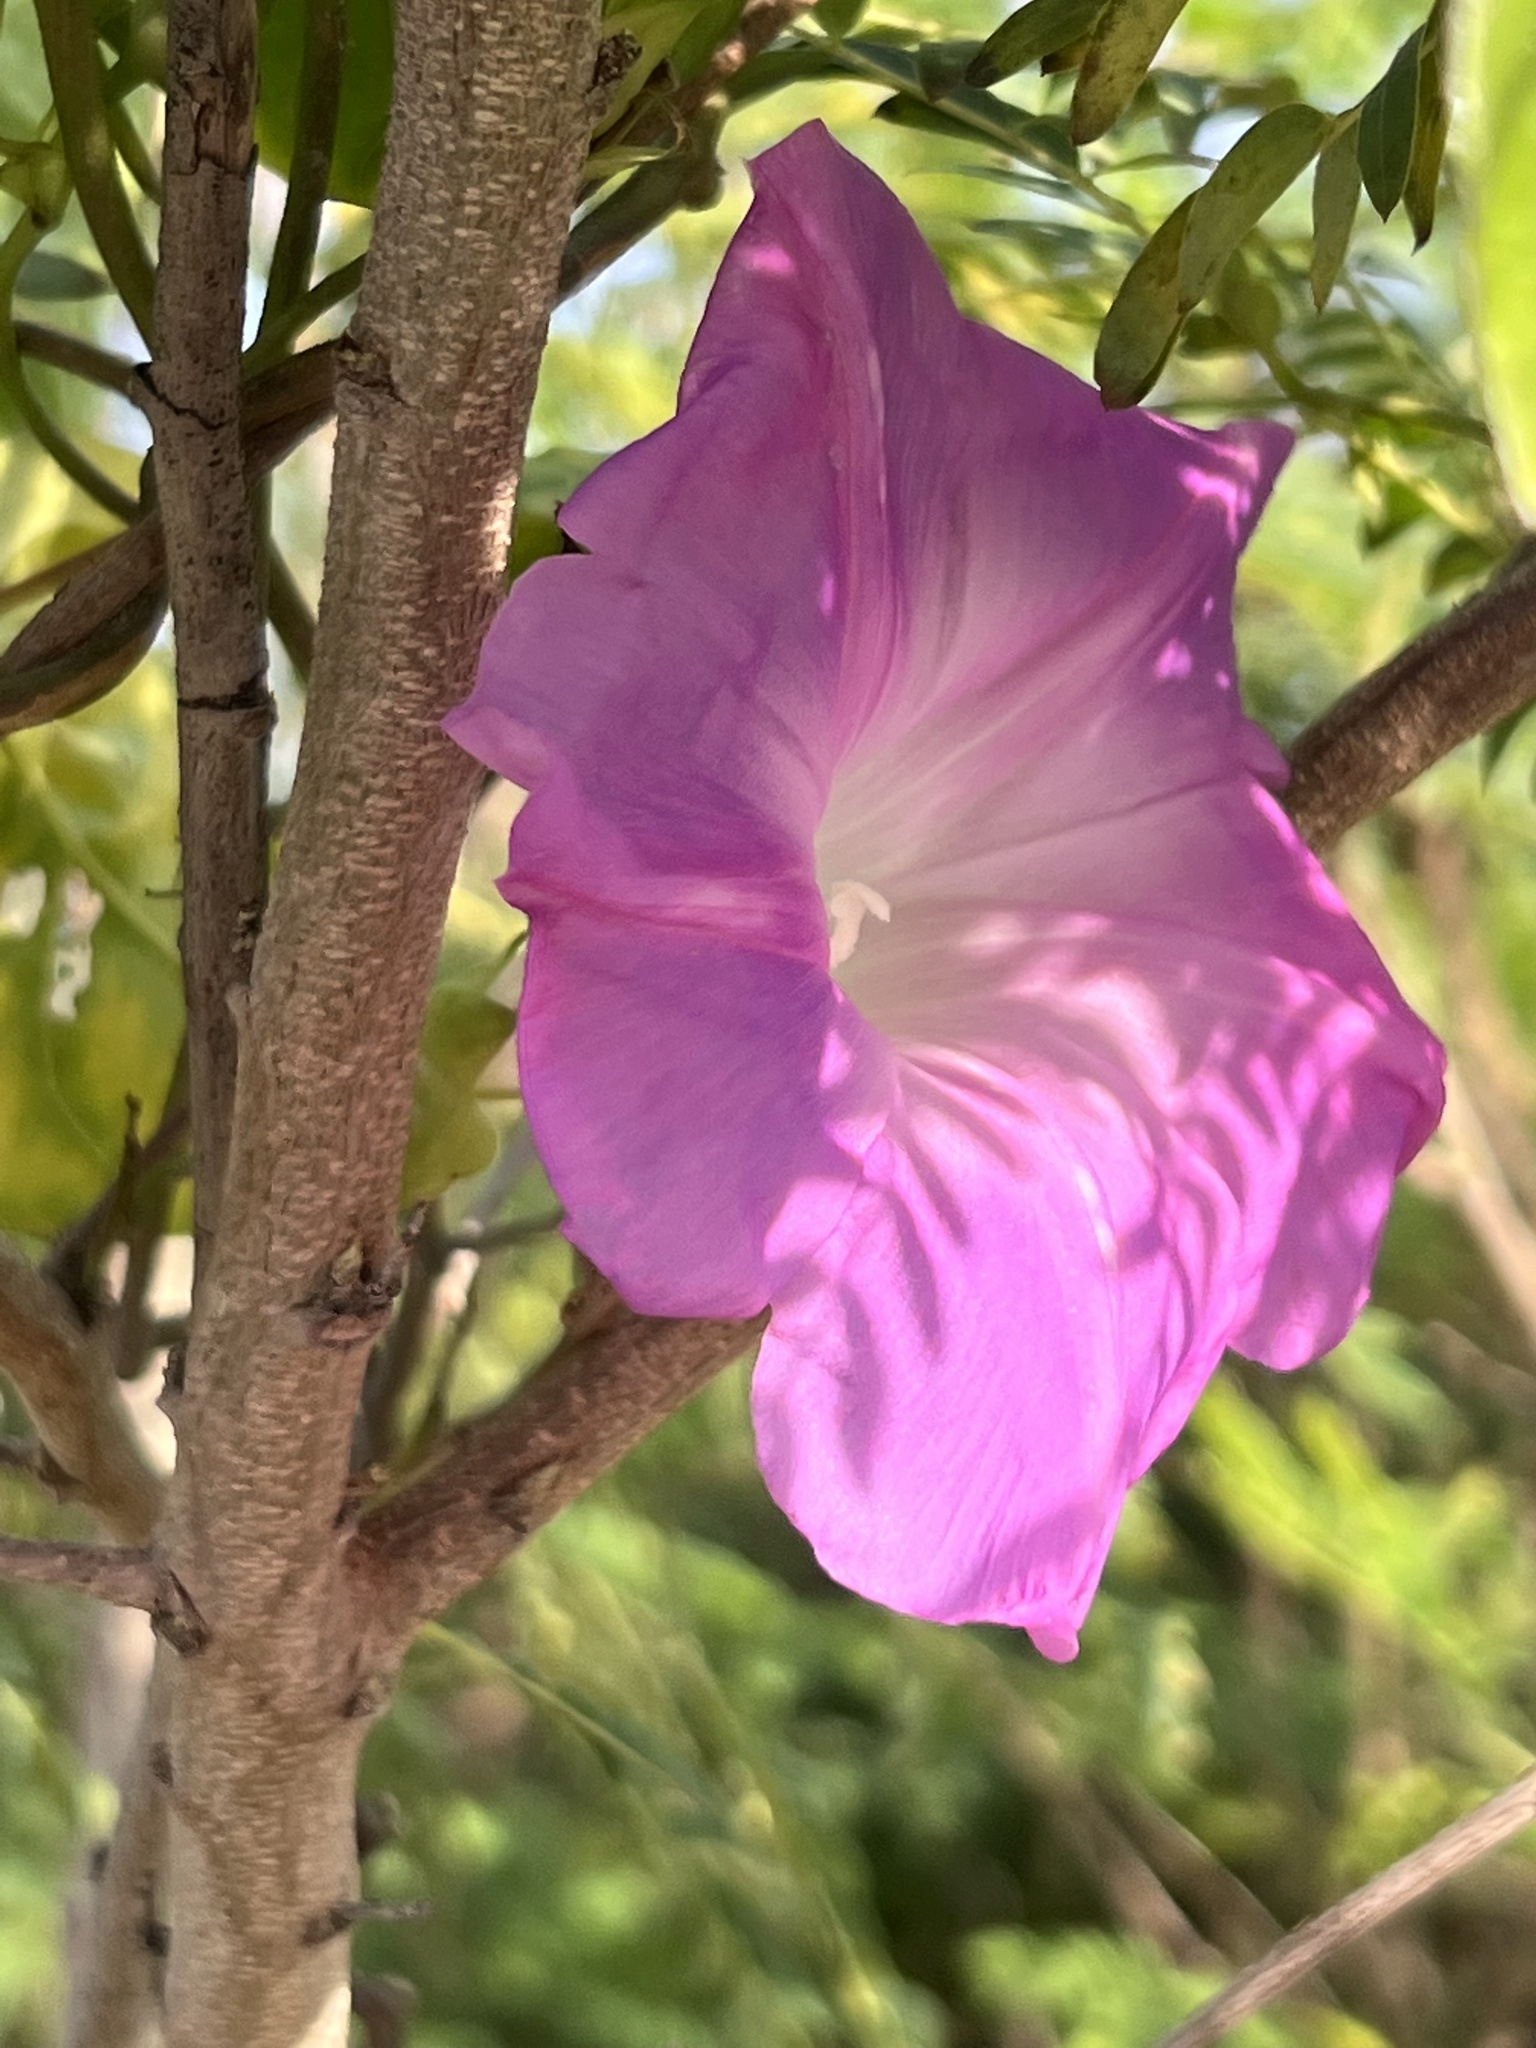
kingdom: Plantae
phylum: Tracheophyta
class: Magnoliopsida
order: Solanales
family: Convolvulaceae
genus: Ipomoea
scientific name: Ipomoea indica
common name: Blue dawnflower
